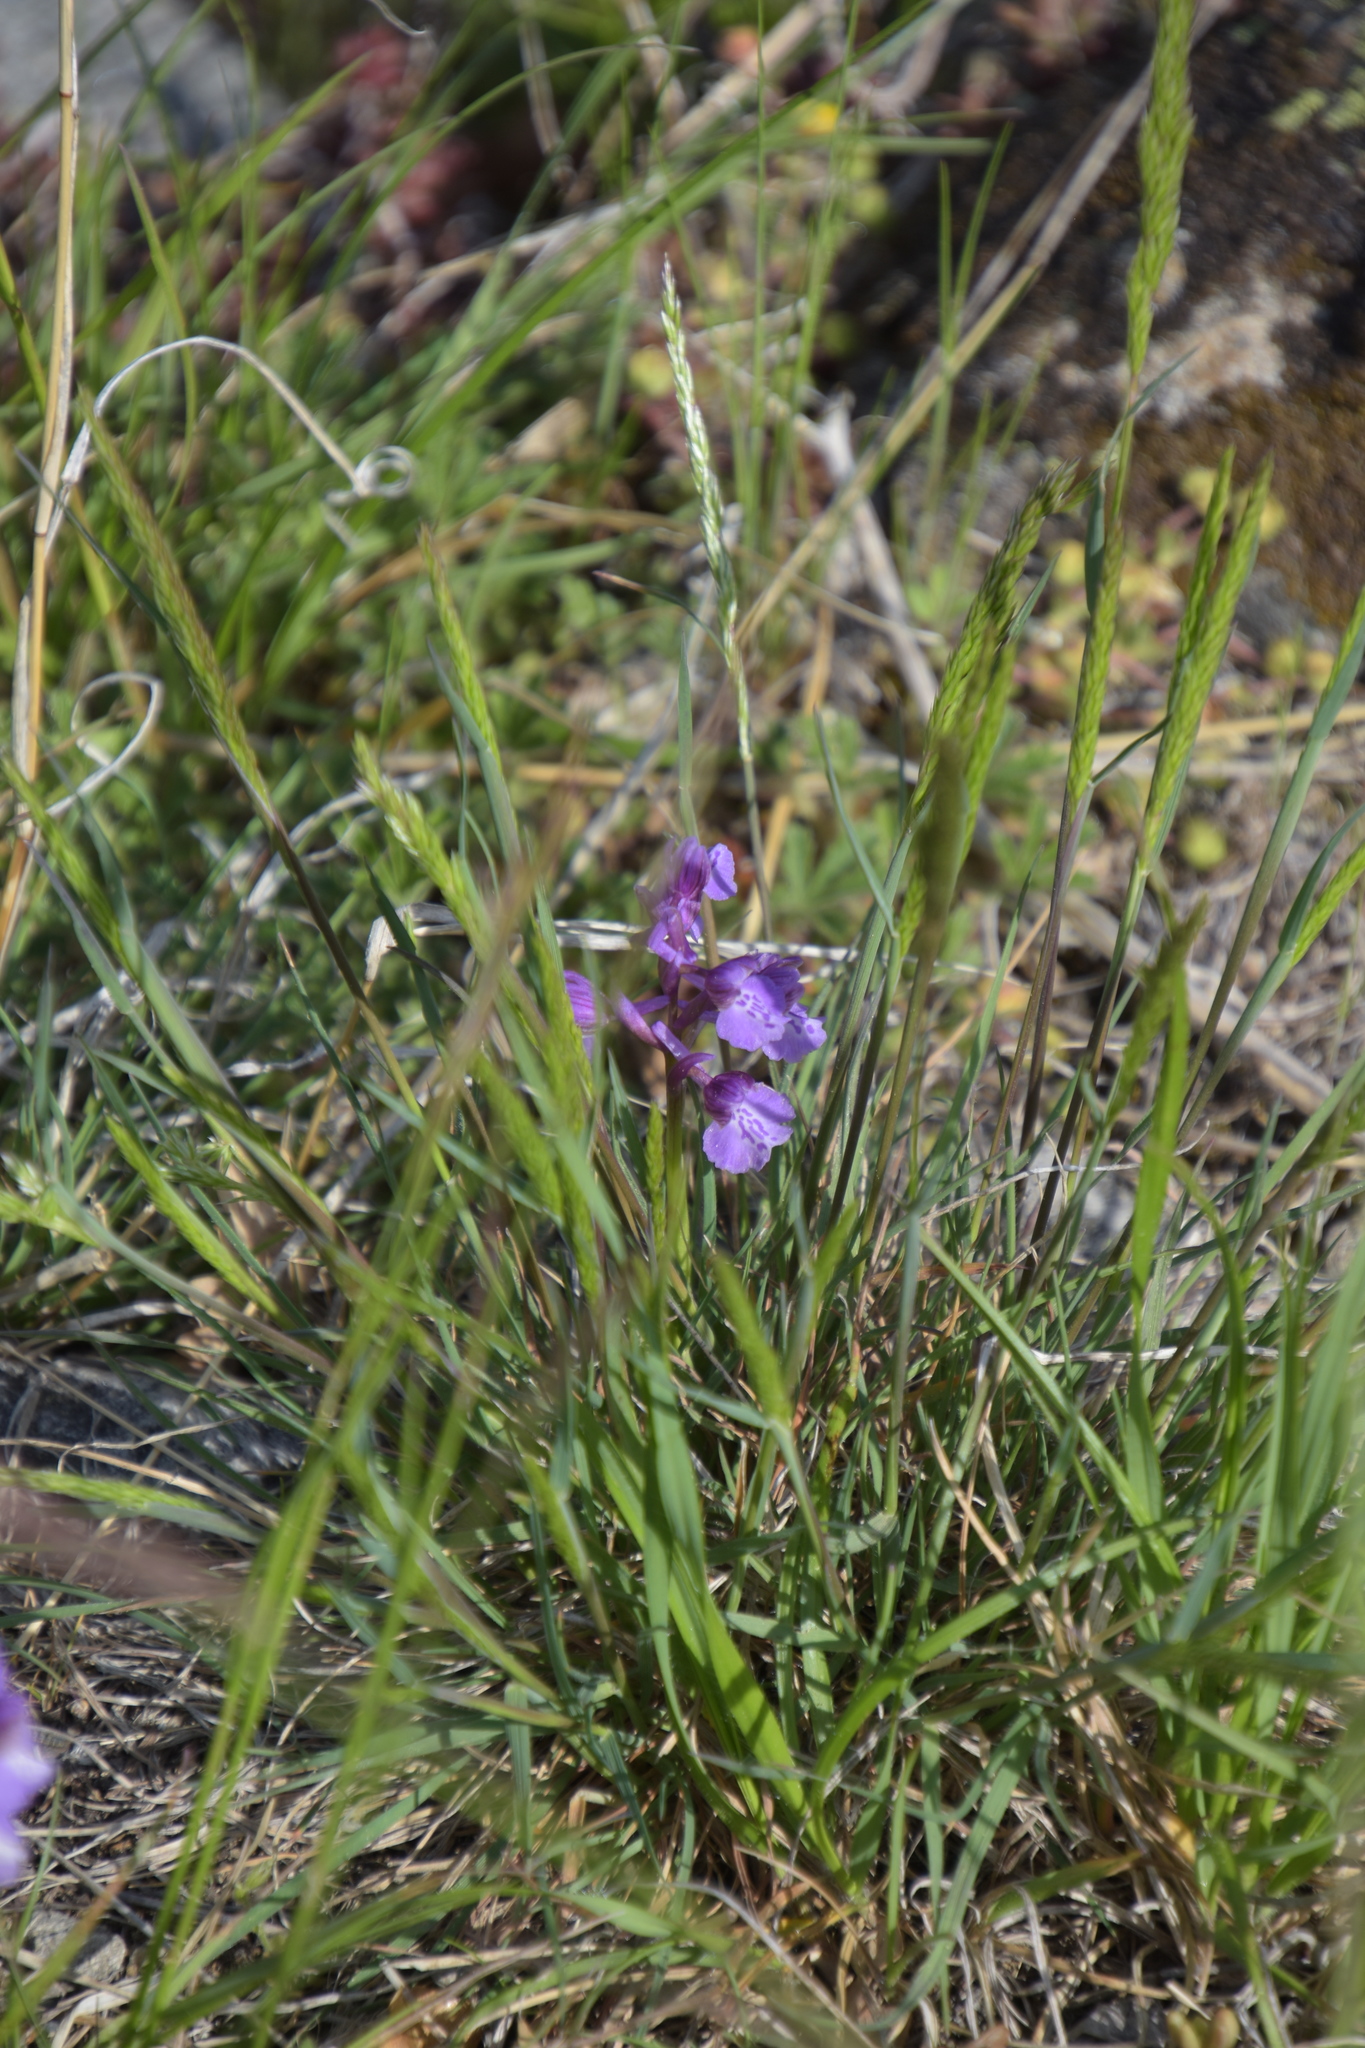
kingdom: Plantae
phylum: Tracheophyta
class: Liliopsida
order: Asparagales
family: Orchidaceae
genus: Anacamptis
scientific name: Anacamptis morio
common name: Green-winged orchid
